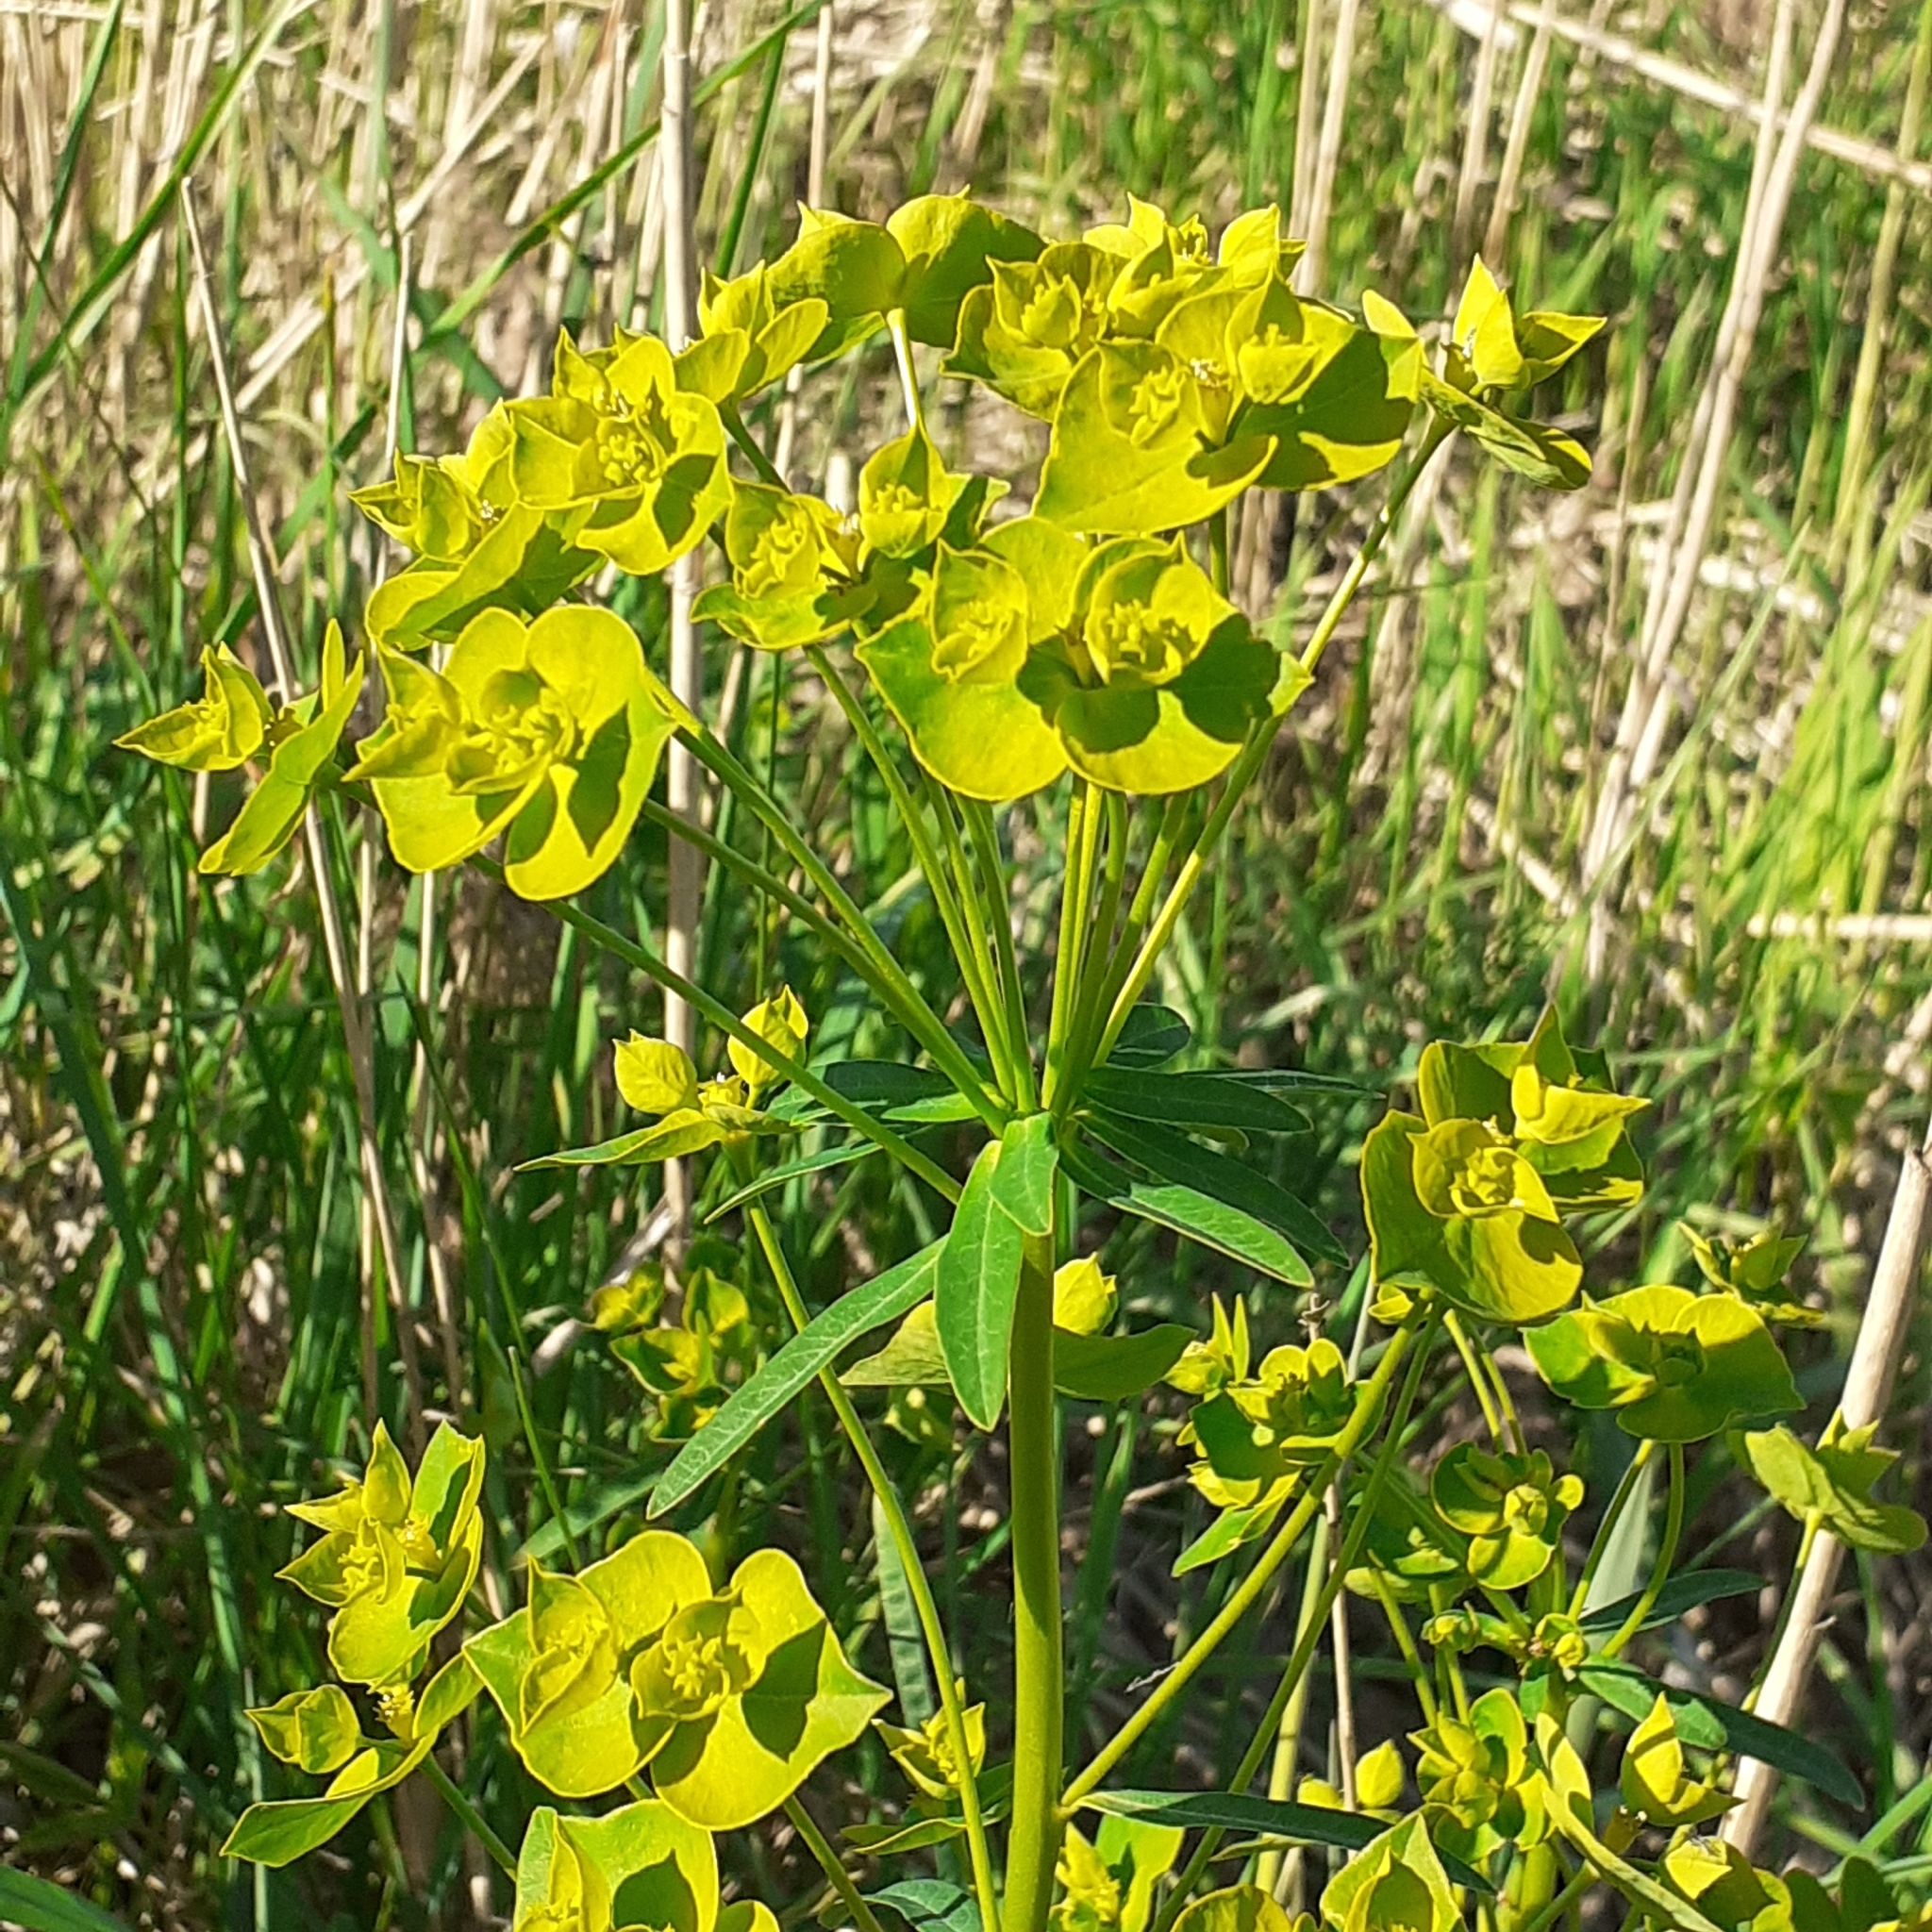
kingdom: Plantae
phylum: Tracheophyta
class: Magnoliopsida
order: Malpighiales
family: Euphorbiaceae
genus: Euphorbia
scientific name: Euphorbia esula
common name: Leafy spurge
